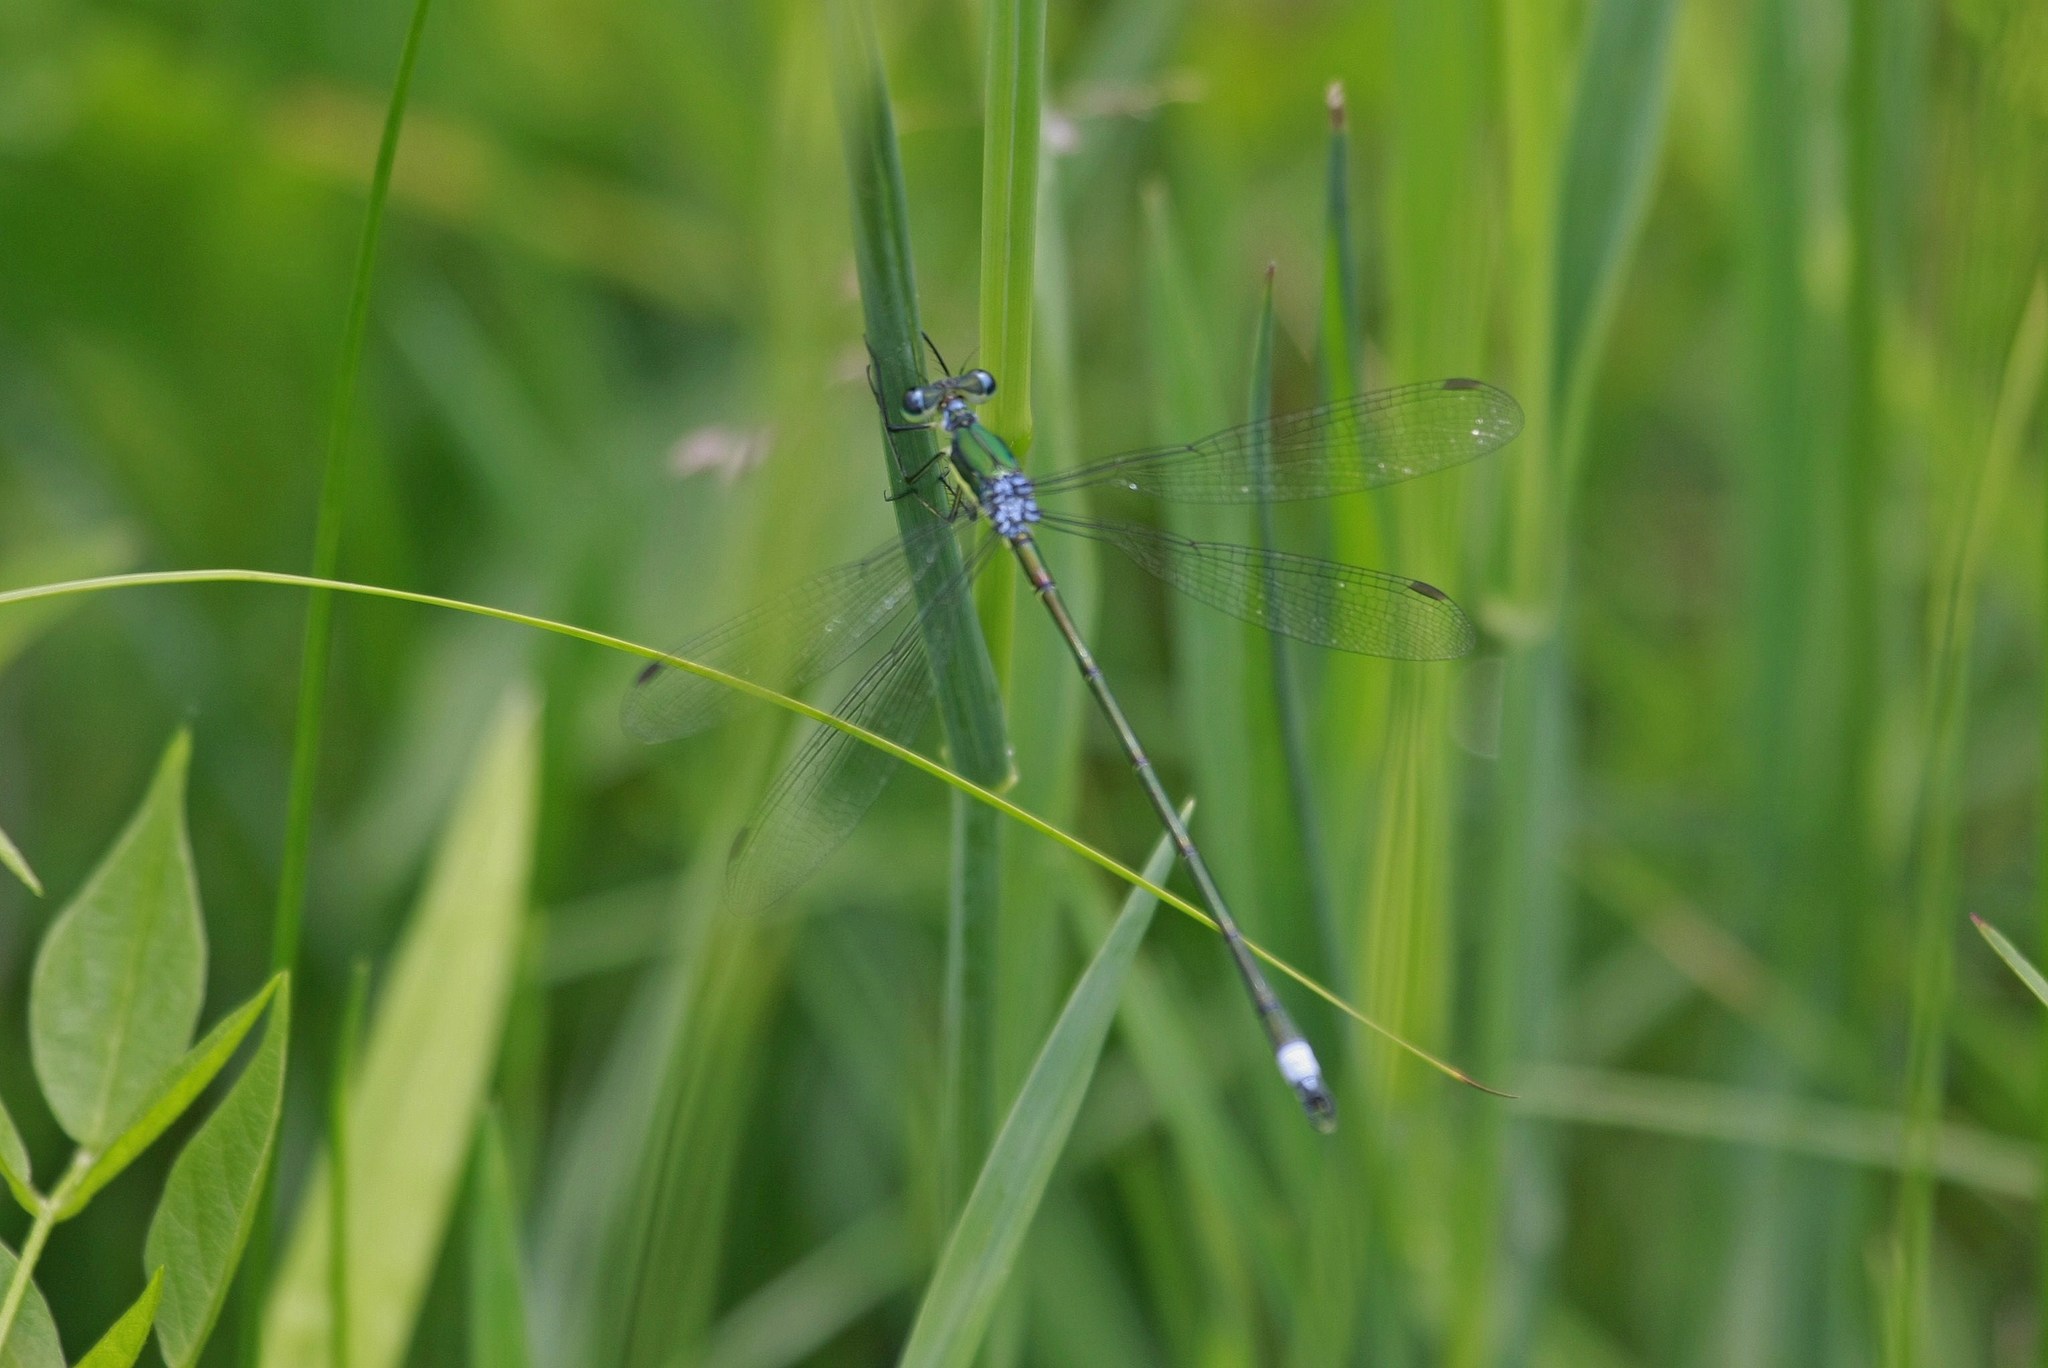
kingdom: Animalia
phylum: Arthropoda
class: Insecta
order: Odonata
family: Lestidae
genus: Lestes
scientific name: Lestes inaequalis
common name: Elegant spreadwing
